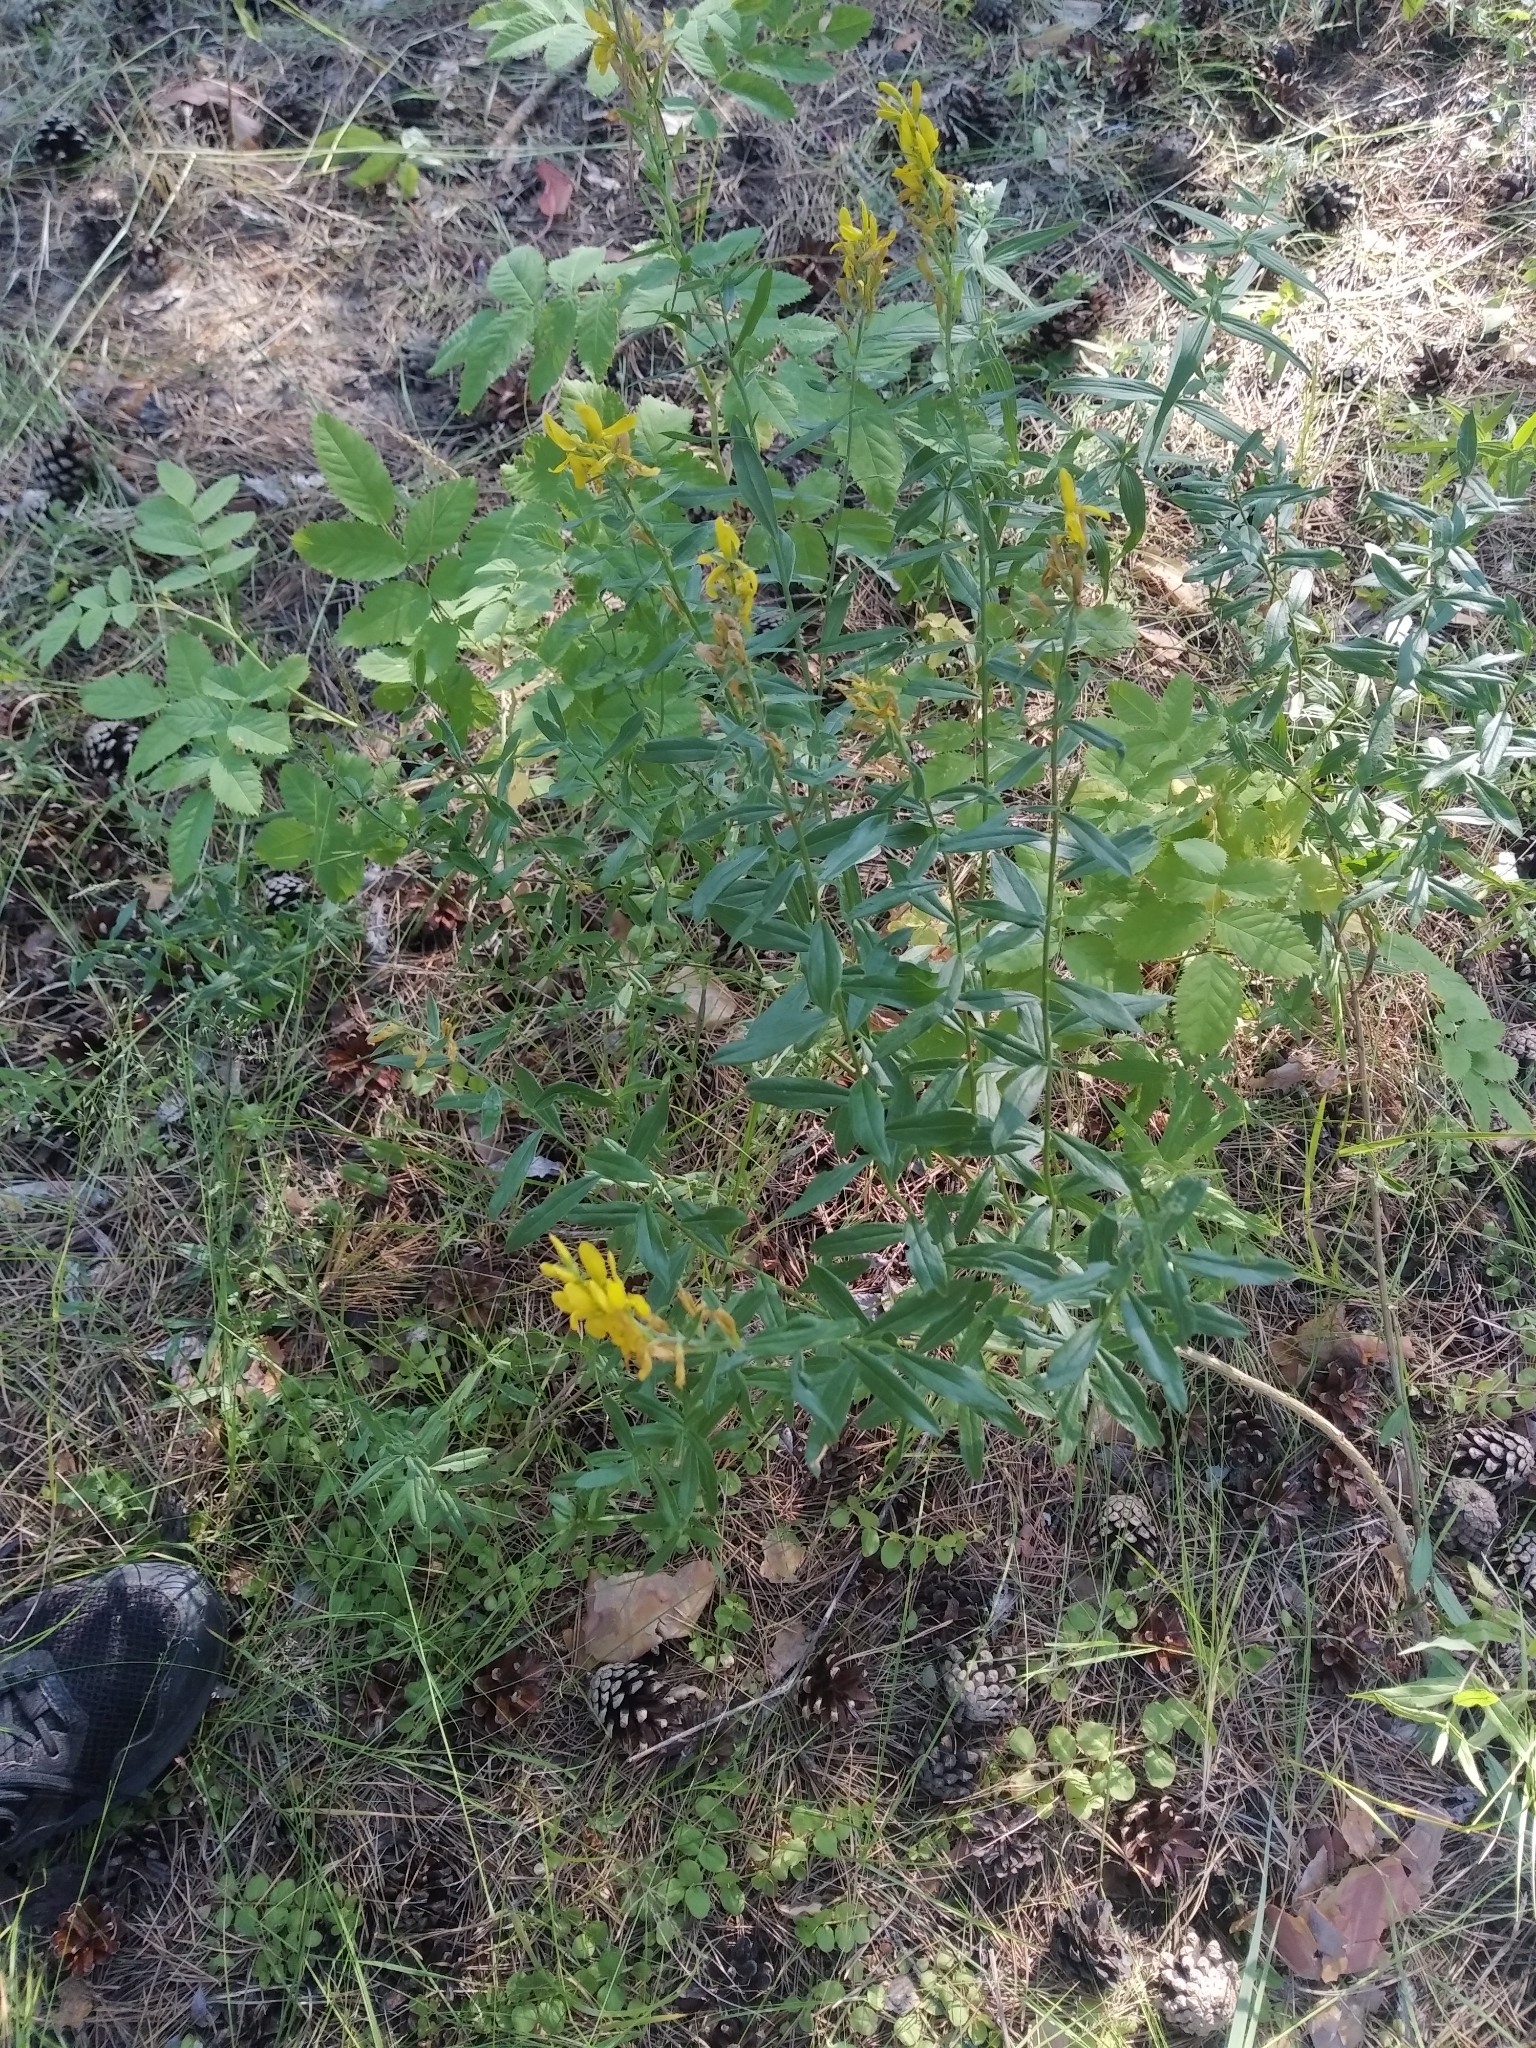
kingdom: Plantae
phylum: Tracheophyta
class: Magnoliopsida
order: Fabales
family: Fabaceae
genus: Genista
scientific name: Genista tinctoria
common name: Dyer's greenweed
